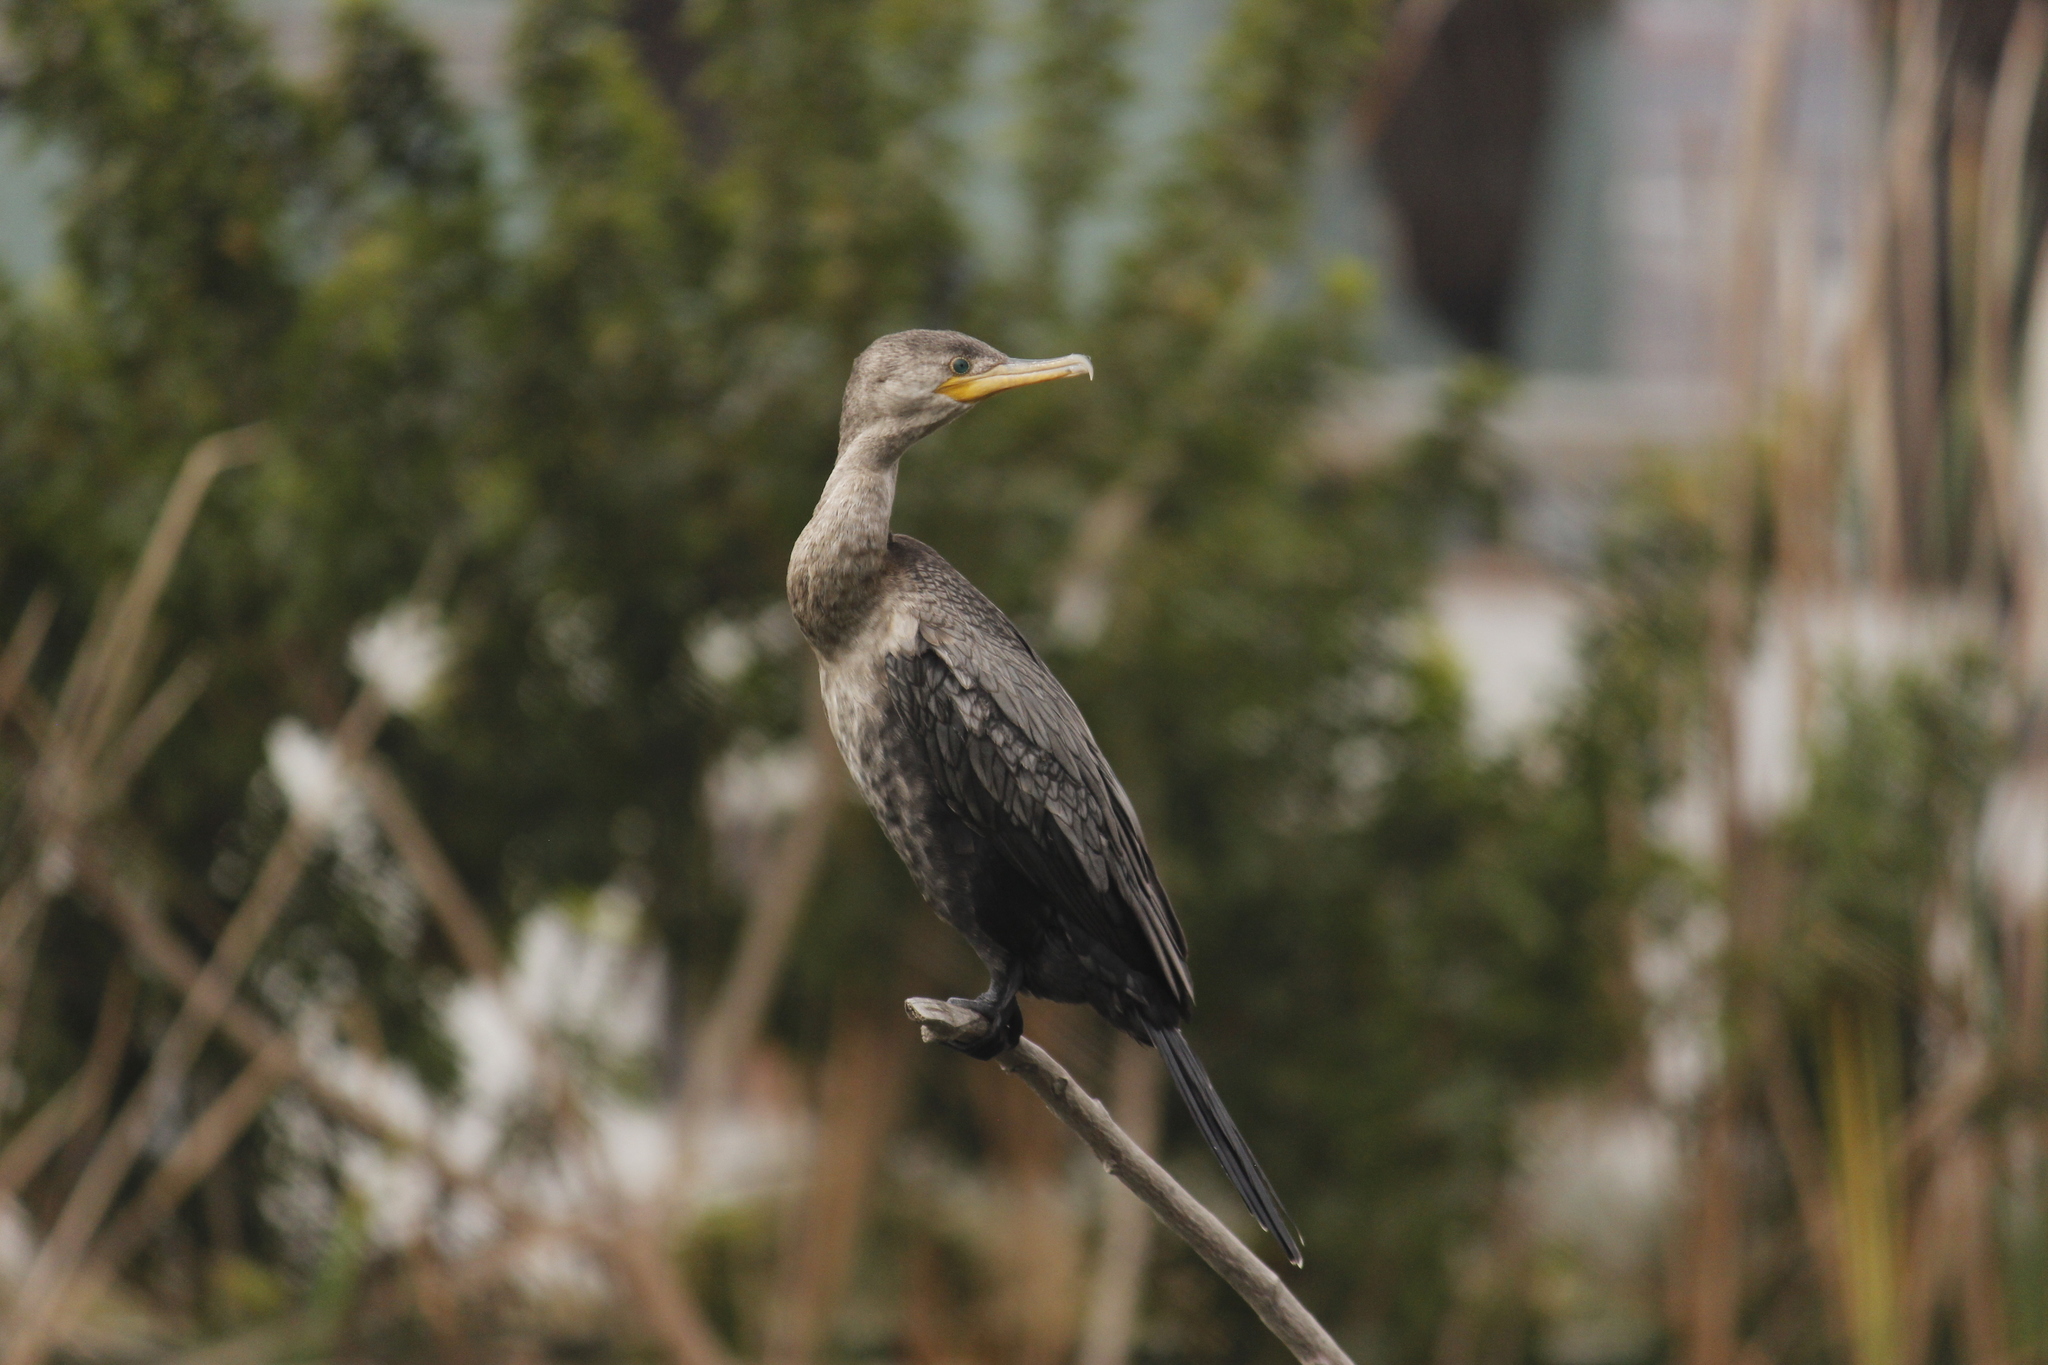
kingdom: Animalia
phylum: Chordata
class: Aves
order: Suliformes
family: Phalacrocoracidae
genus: Phalacrocorax
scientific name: Phalacrocorax brasilianus
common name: Neotropic cormorant
